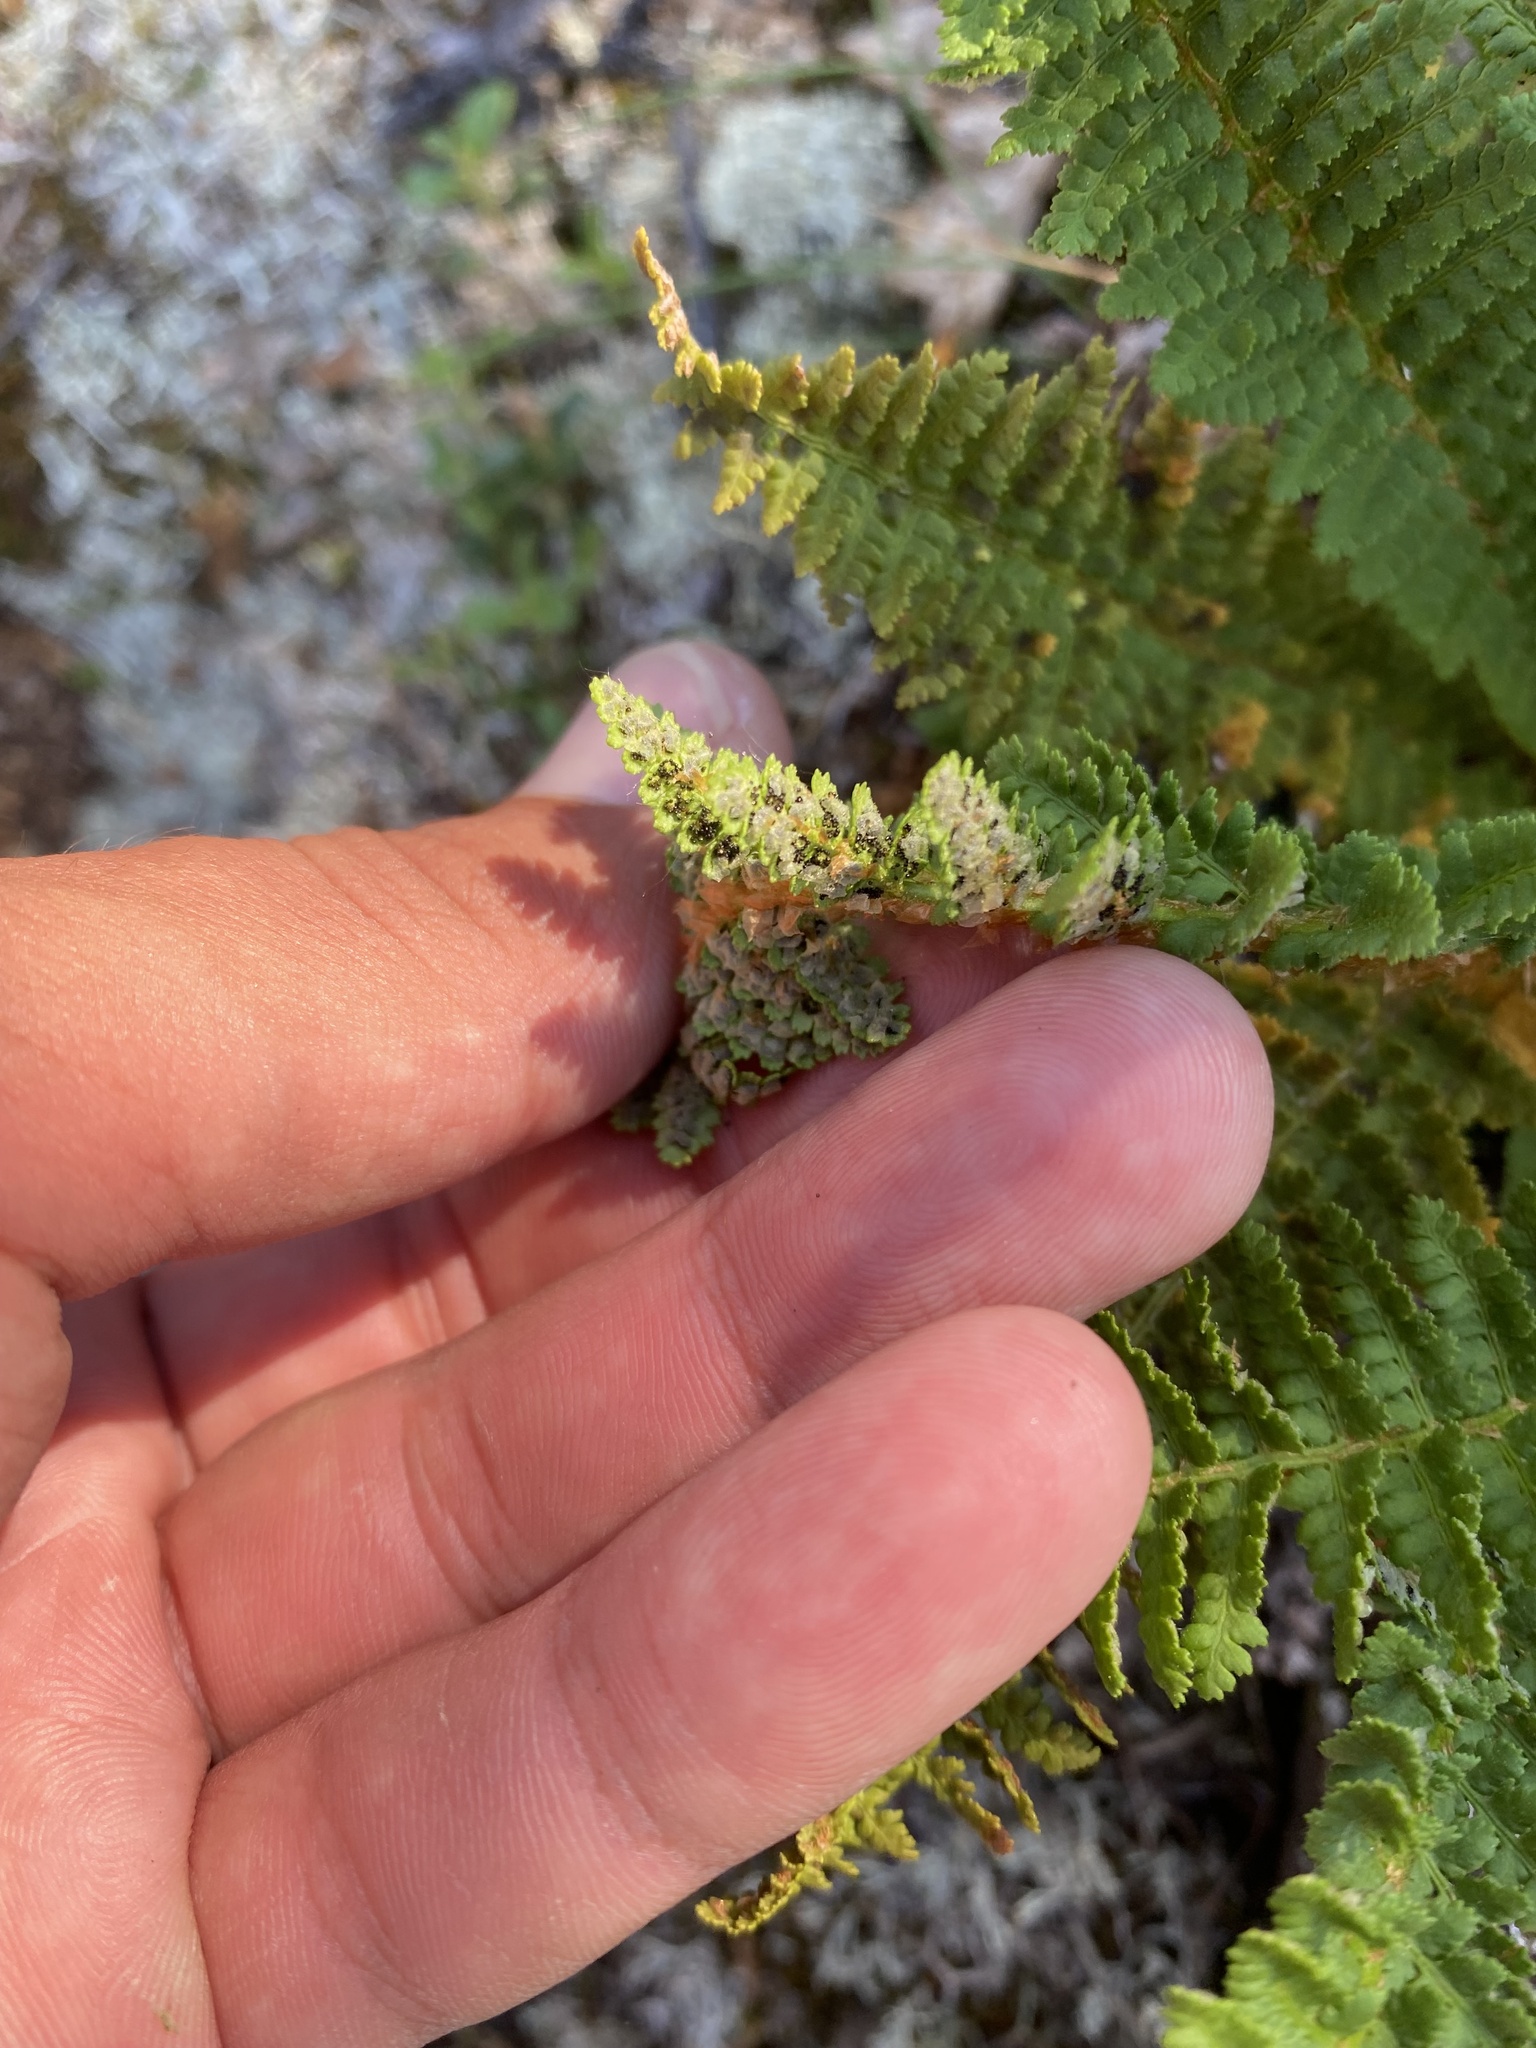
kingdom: Plantae
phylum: Tracheophyta
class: Polypodiopsida
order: Polypodiales
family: Dryopteridaceae
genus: Dryopteris
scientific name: Dryopteris fragrans
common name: Fragrant wood fern
